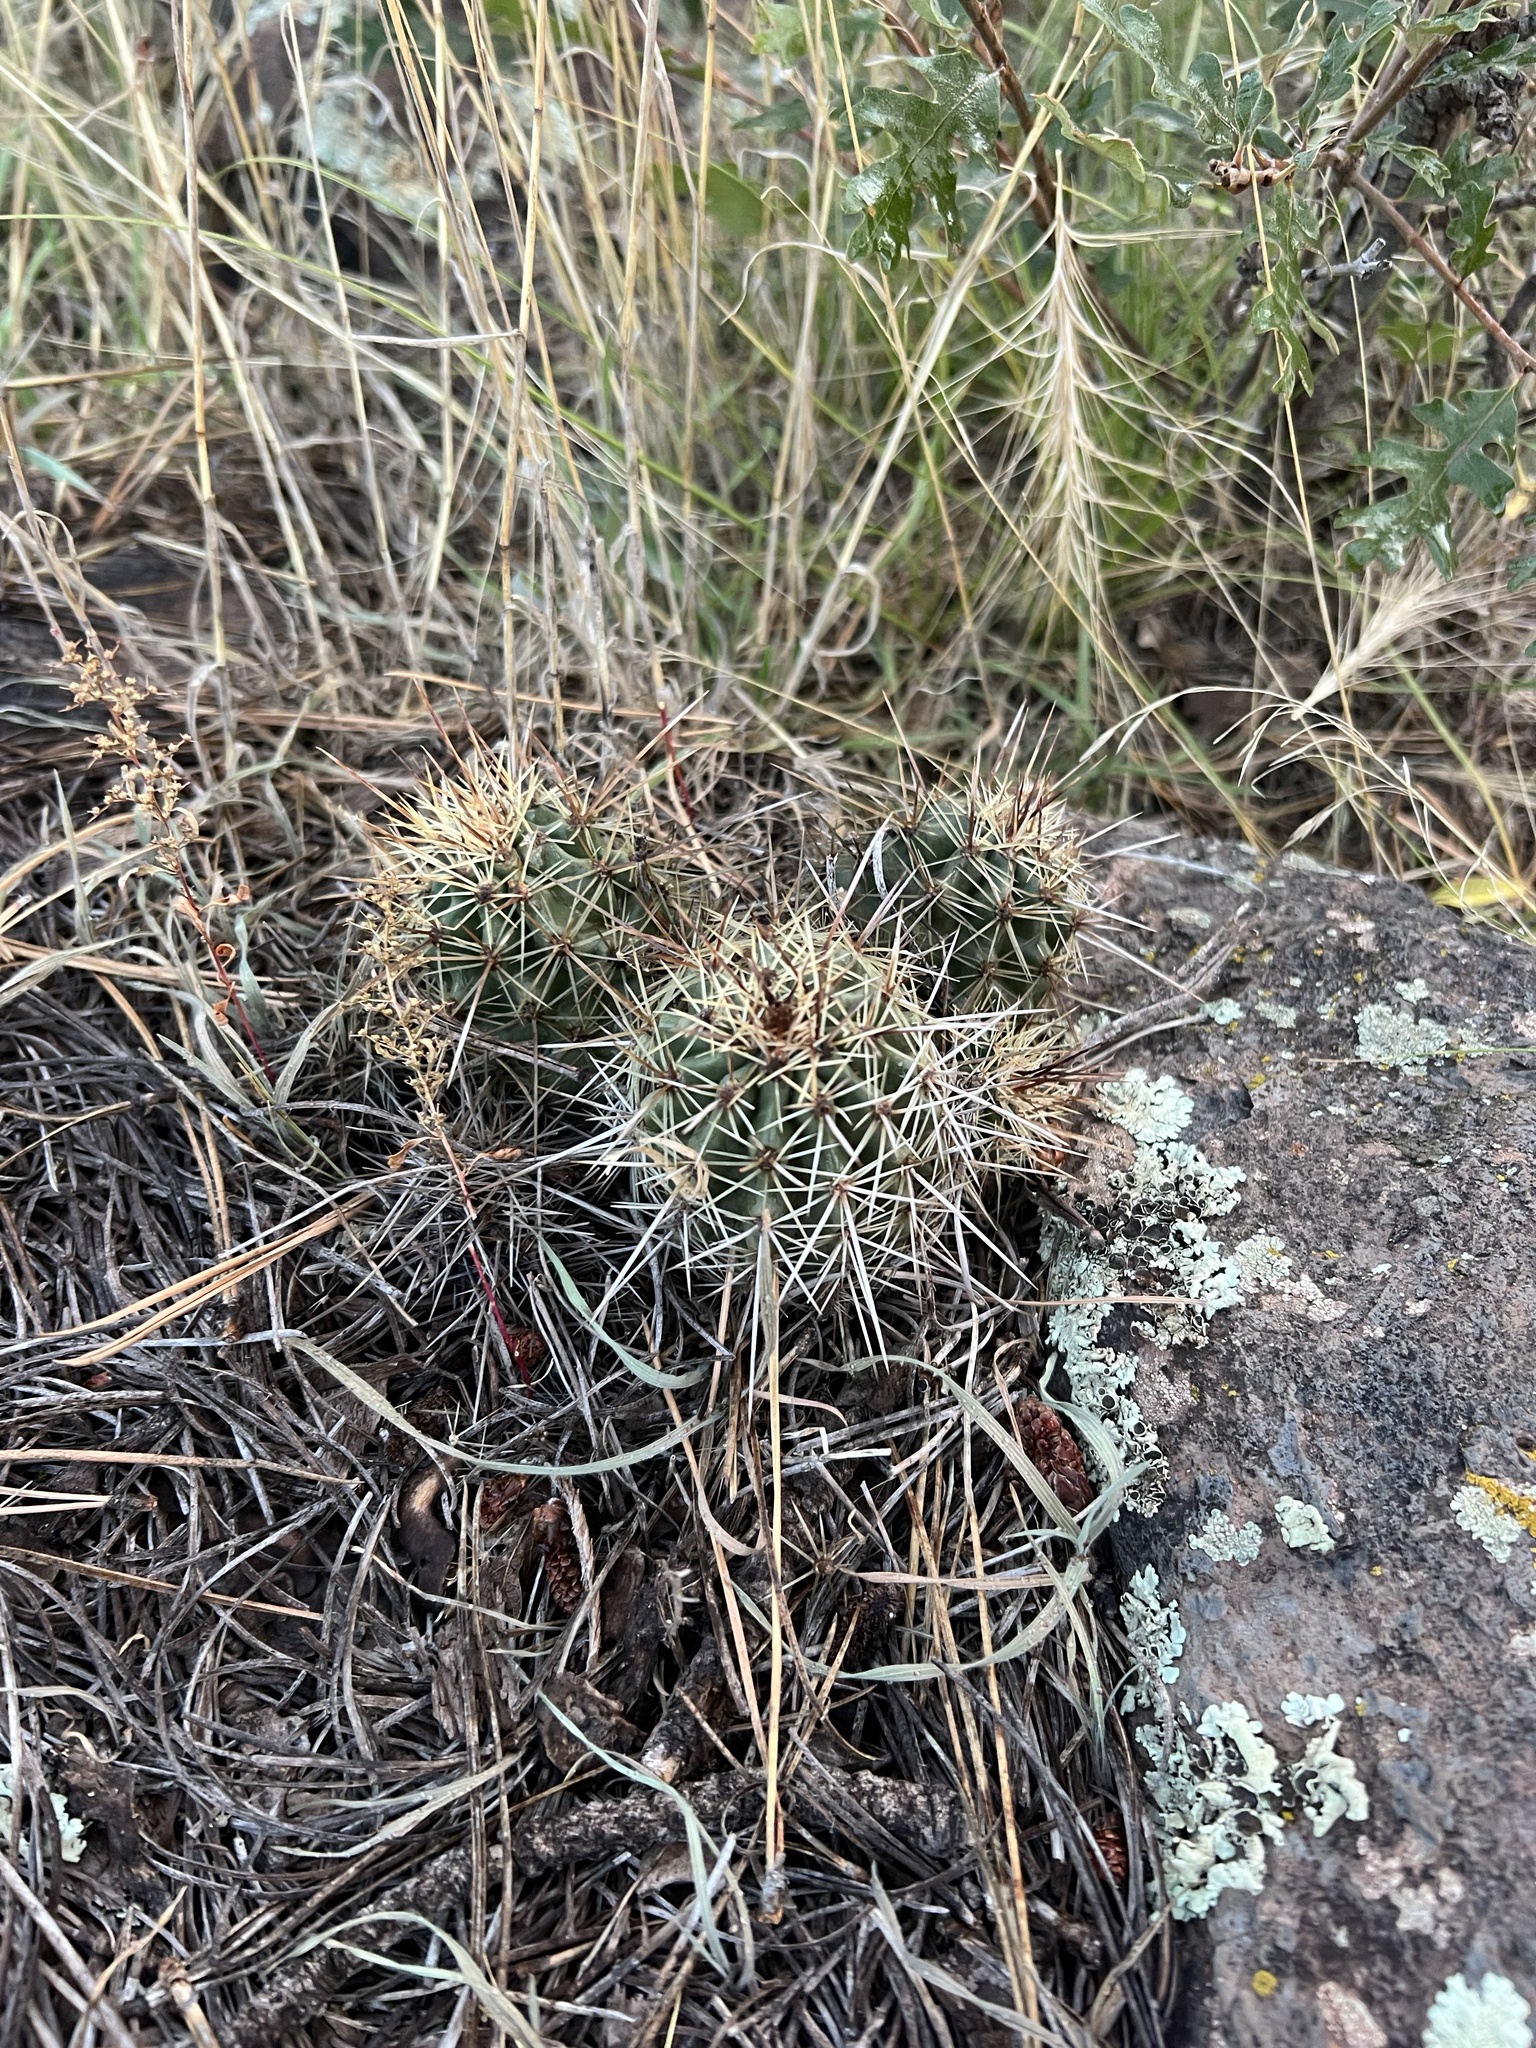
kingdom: Plantae
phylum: Tracheophyta
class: Magnoliopsida
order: Caryophyllales
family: Cactaceae
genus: Echinocereus
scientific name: Echinocereus bakeri
